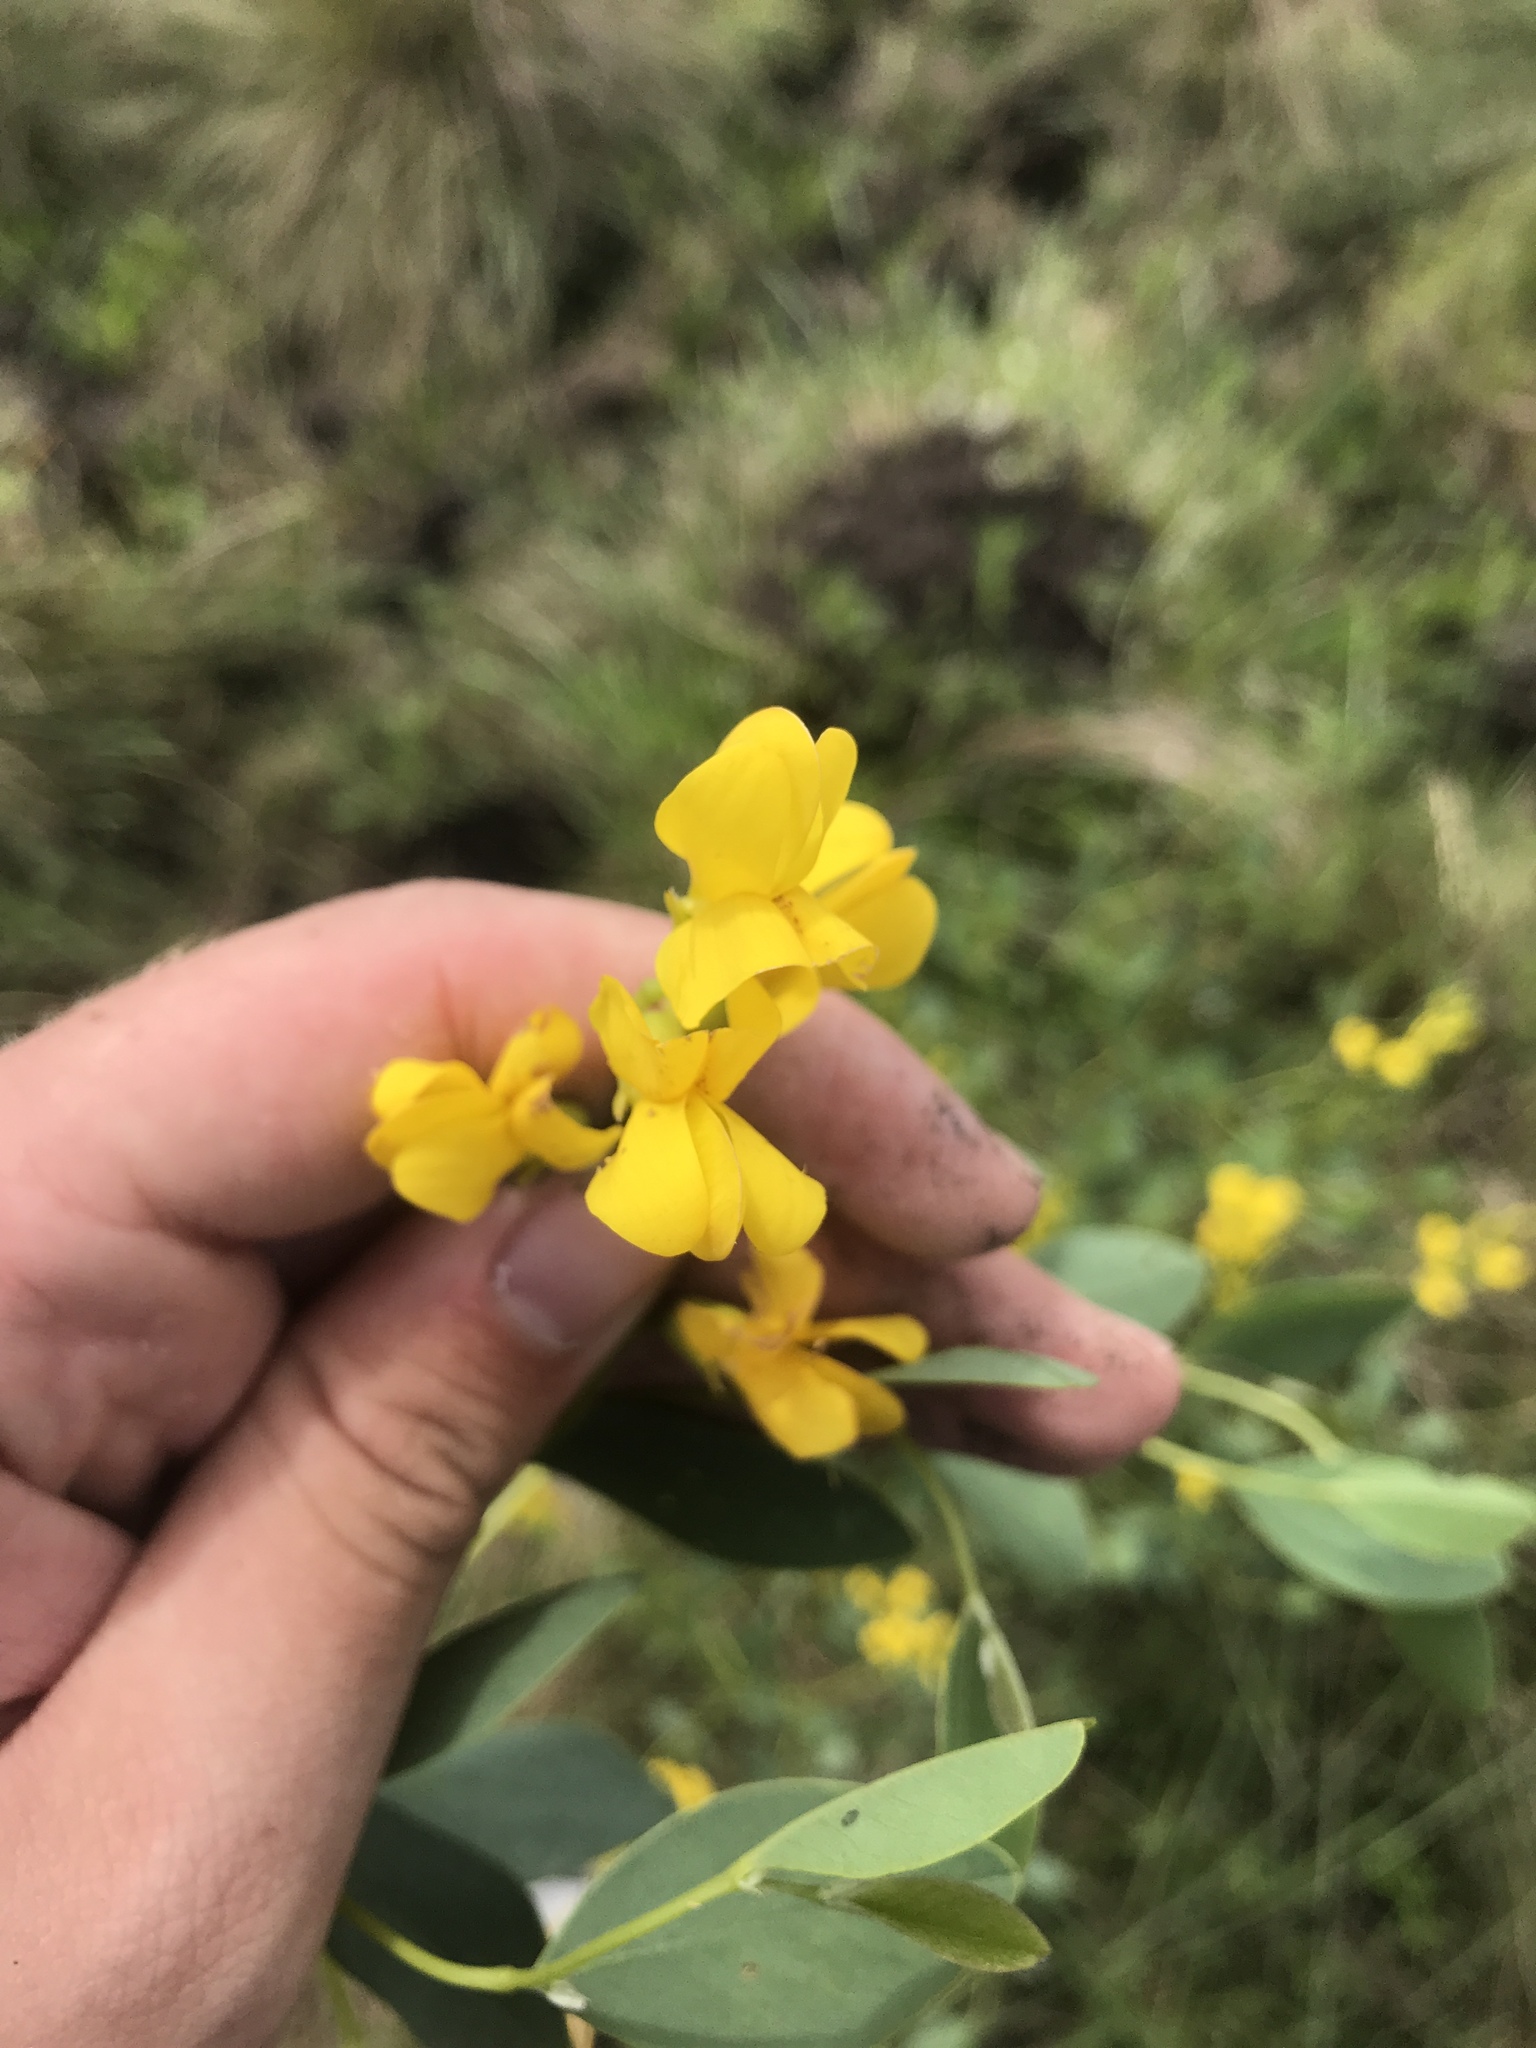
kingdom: Plantae
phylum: Tracheophyta
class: Magnoliopsida
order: Fabales
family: Fabaceae
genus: Baptisia
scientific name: Baptisia sphaerocarpa
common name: Round wild indigo
